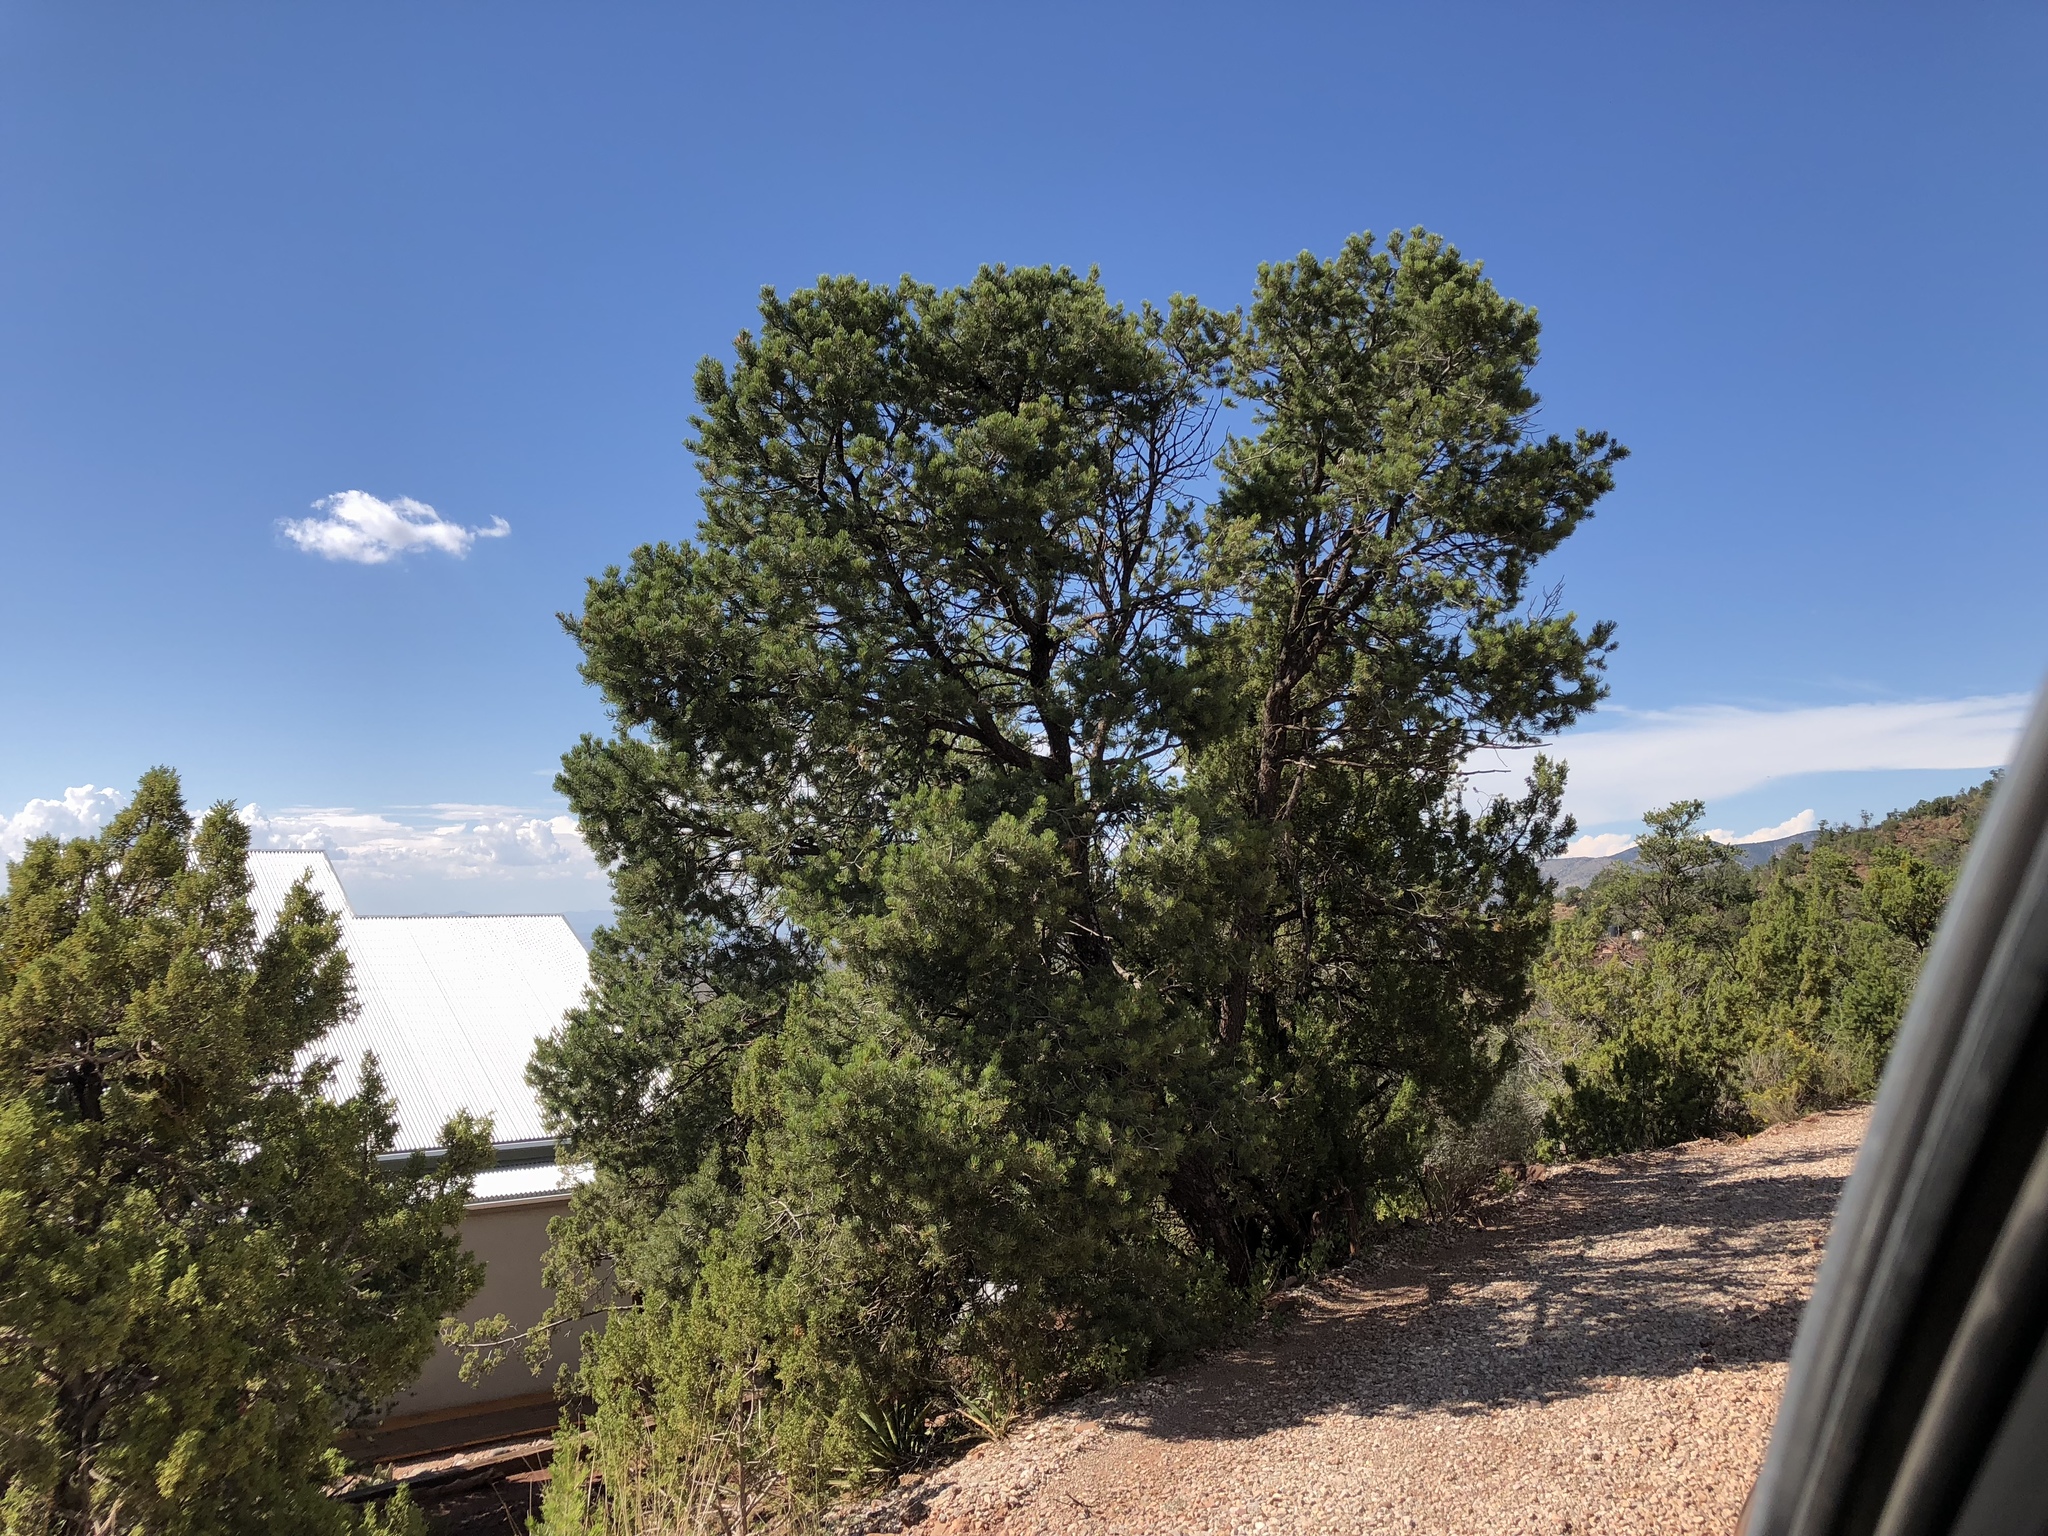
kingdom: Plantae
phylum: Tracheophyta
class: Pinopsida
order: Pinales
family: Pinaceae
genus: Pinus
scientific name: Pinus edulis
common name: Colorado pinyon
